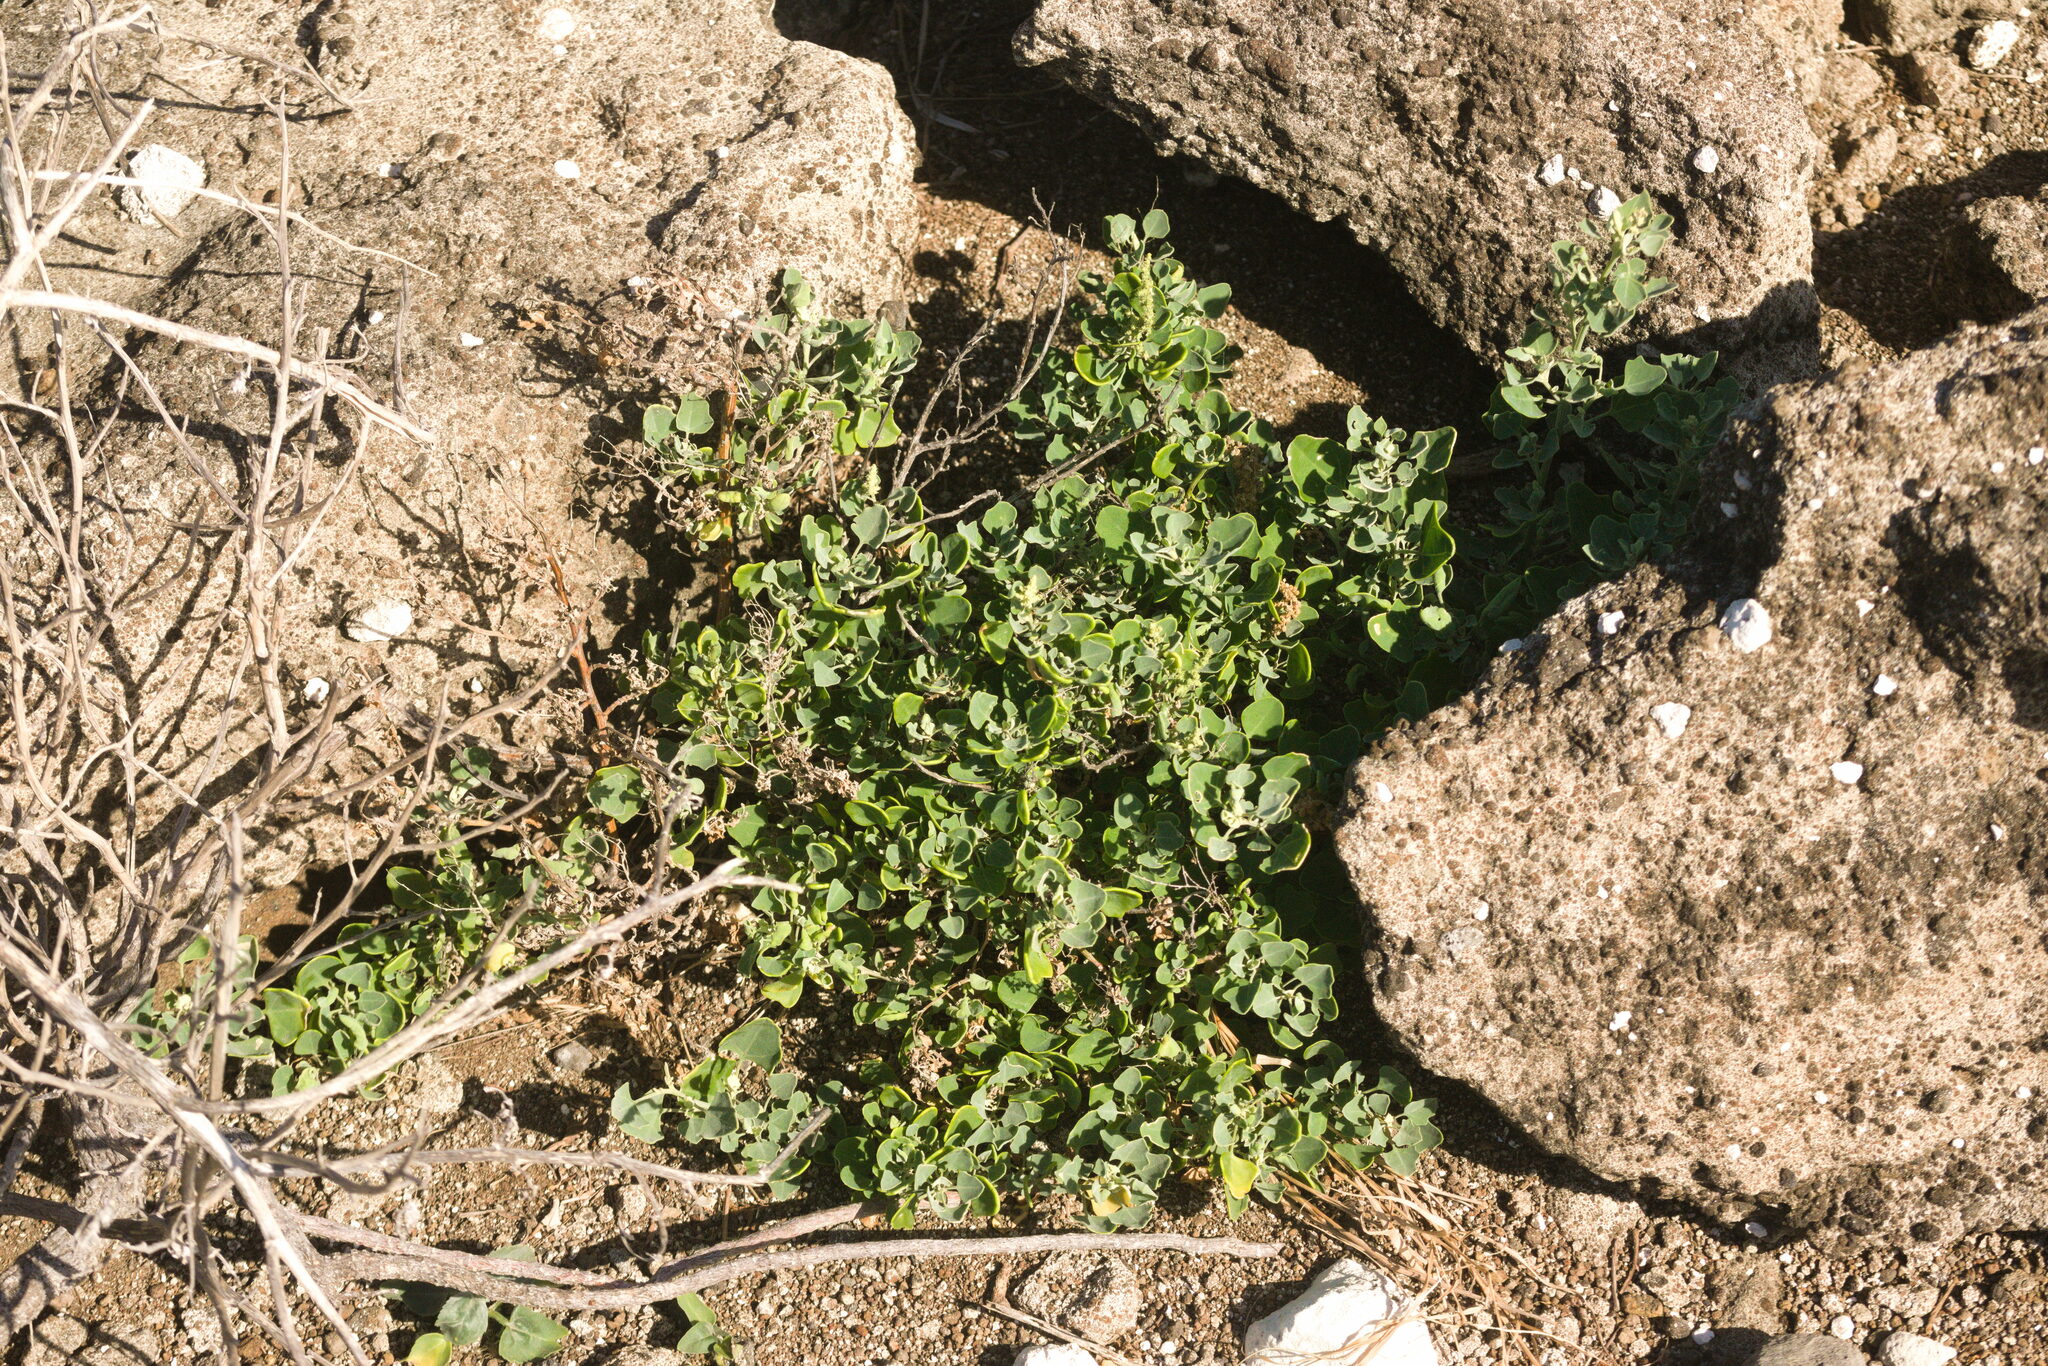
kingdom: Plantae
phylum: Tracheophyta
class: Magnoliopsida
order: Caryophyllales
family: Amaranthaceae
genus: Chenopodium
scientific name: Chenopodium oahuense
